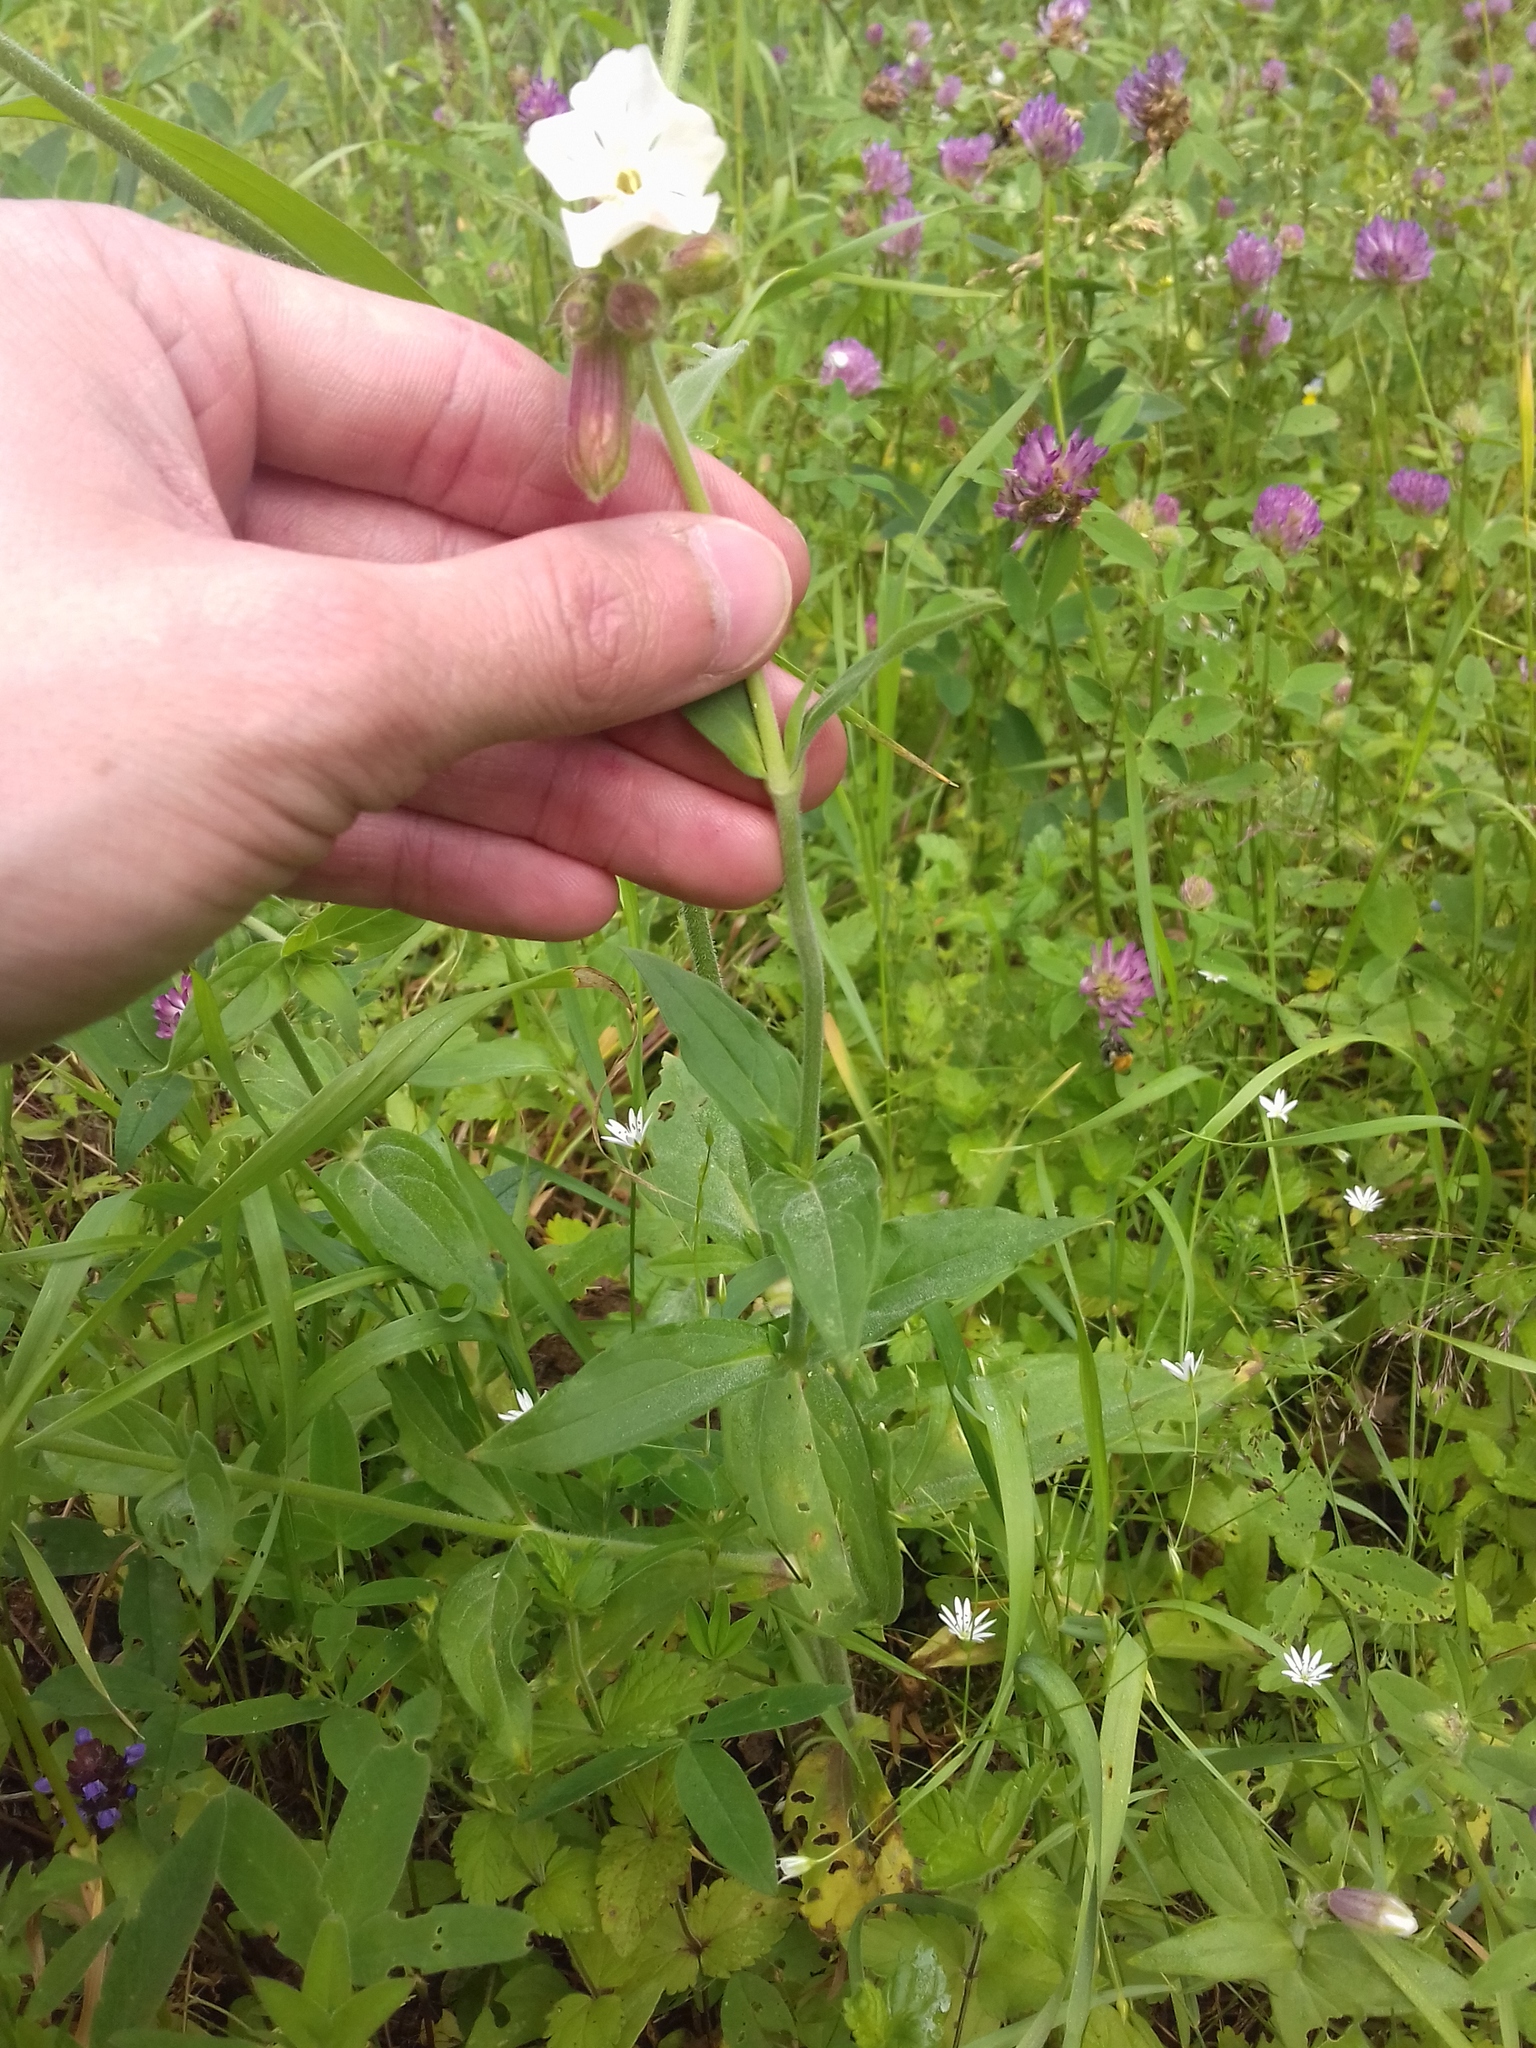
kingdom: Plantae
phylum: Tracheophyta
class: Magnoliopsida
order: Caryophyllales
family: Caryophyllaceae
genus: Silene
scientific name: Silene latifolia
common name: White campion
